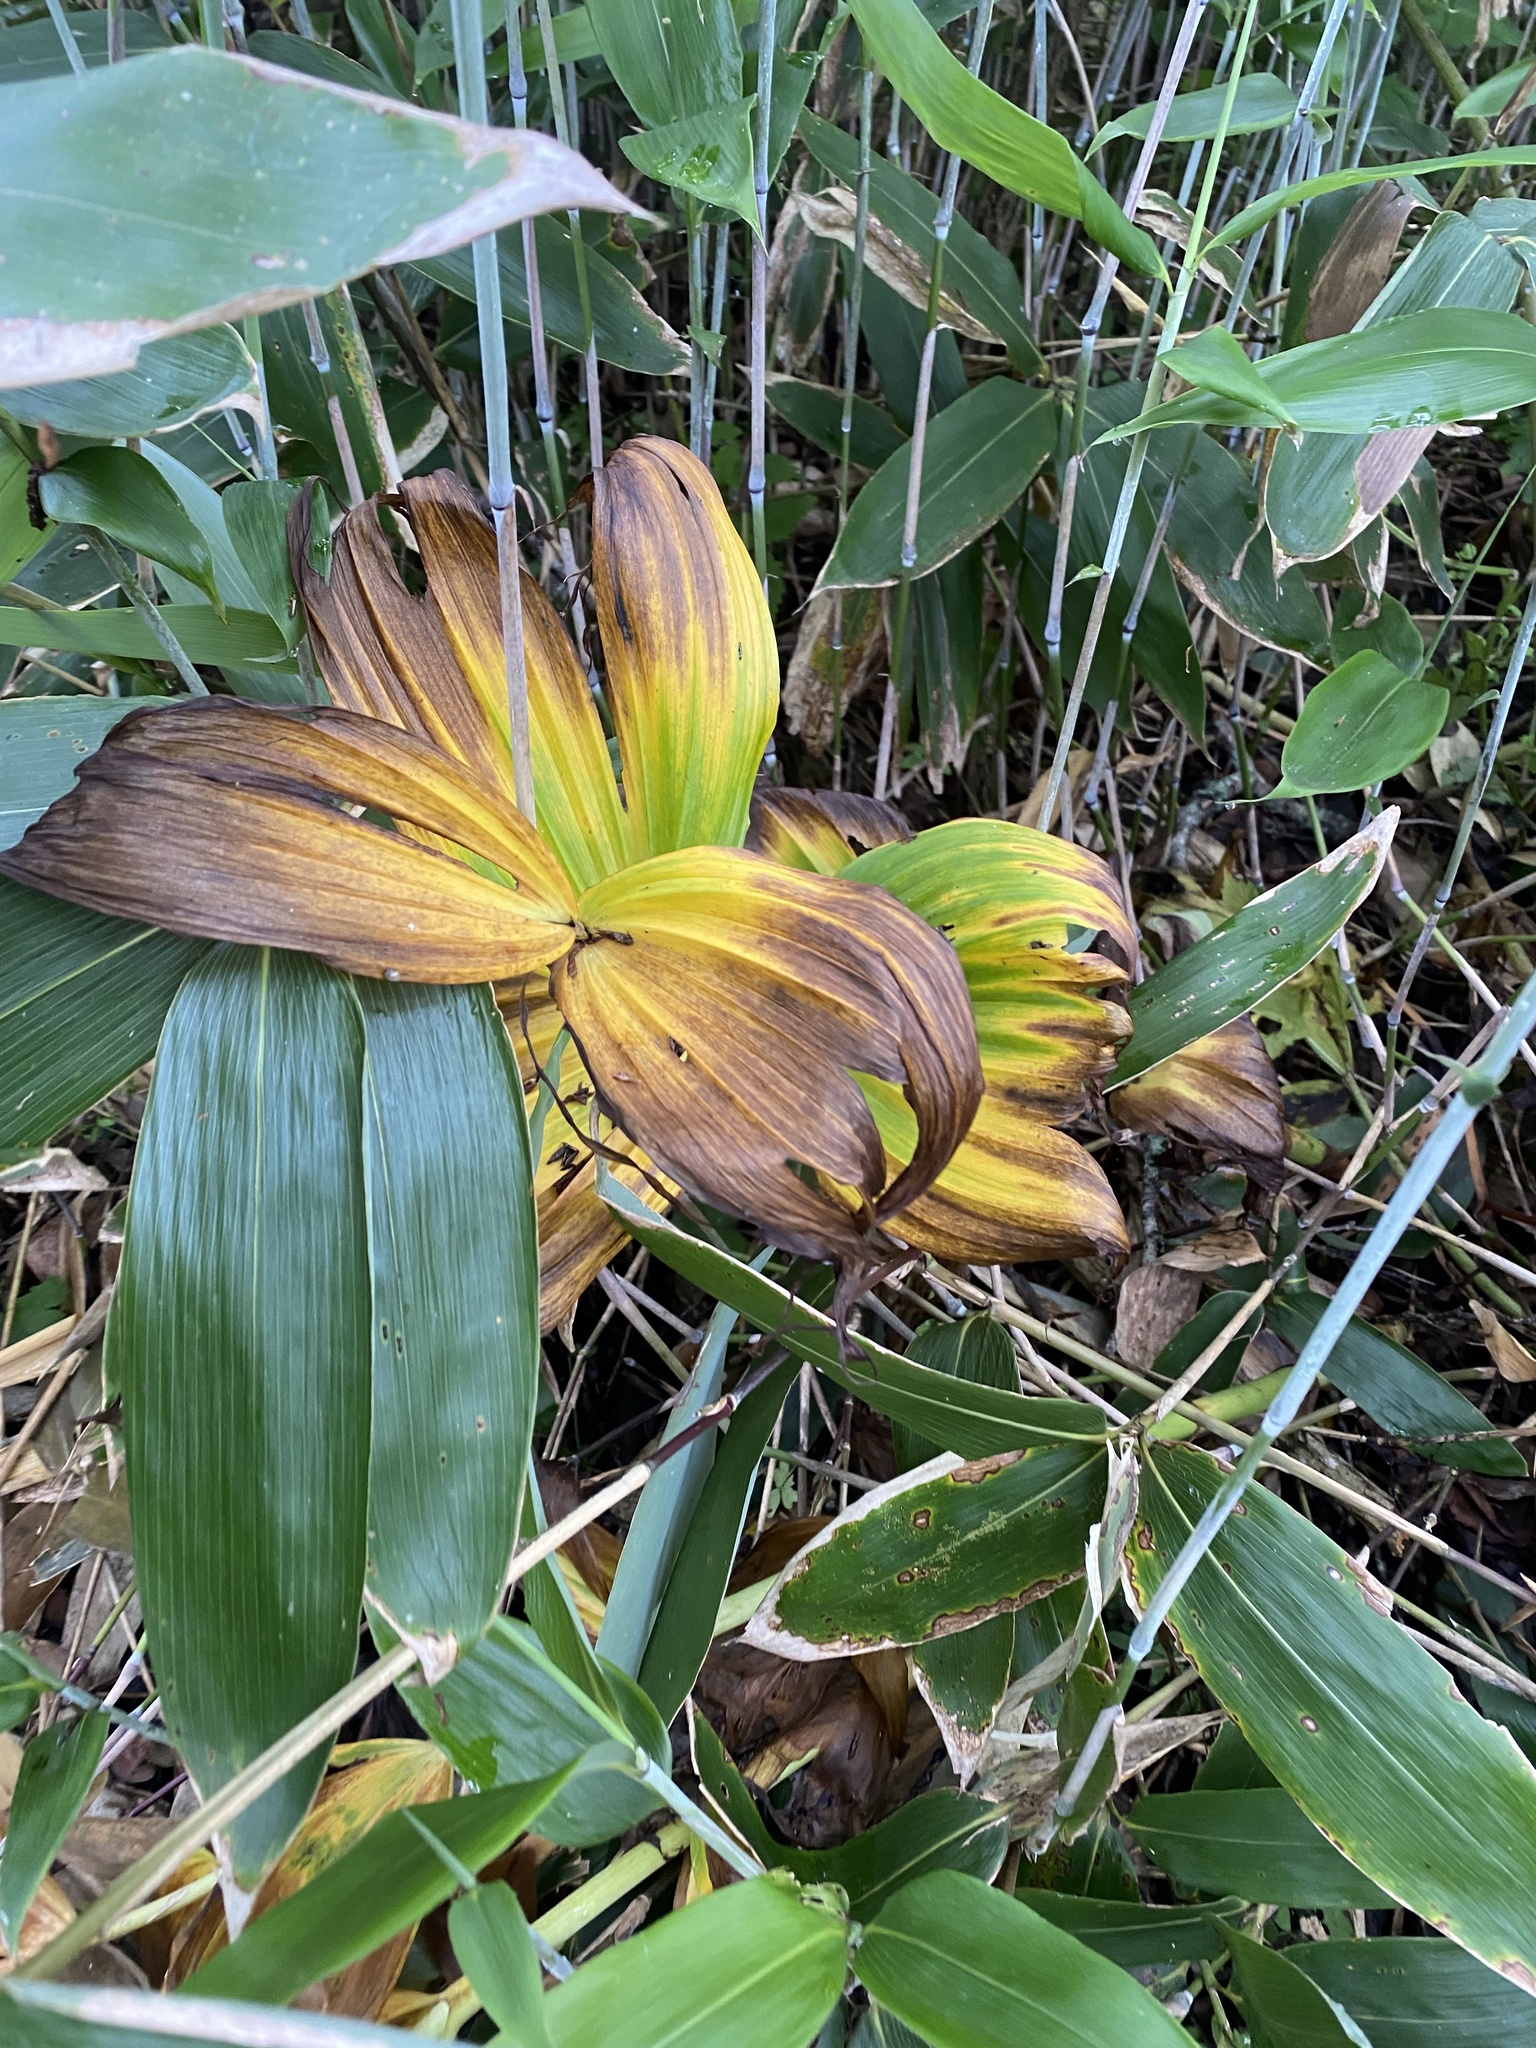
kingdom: Plantae
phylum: Tracheophyta
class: Liliopsida
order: Liliales
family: Melanthiaceae
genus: Veratrum
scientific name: Veratrum grandiflorum
